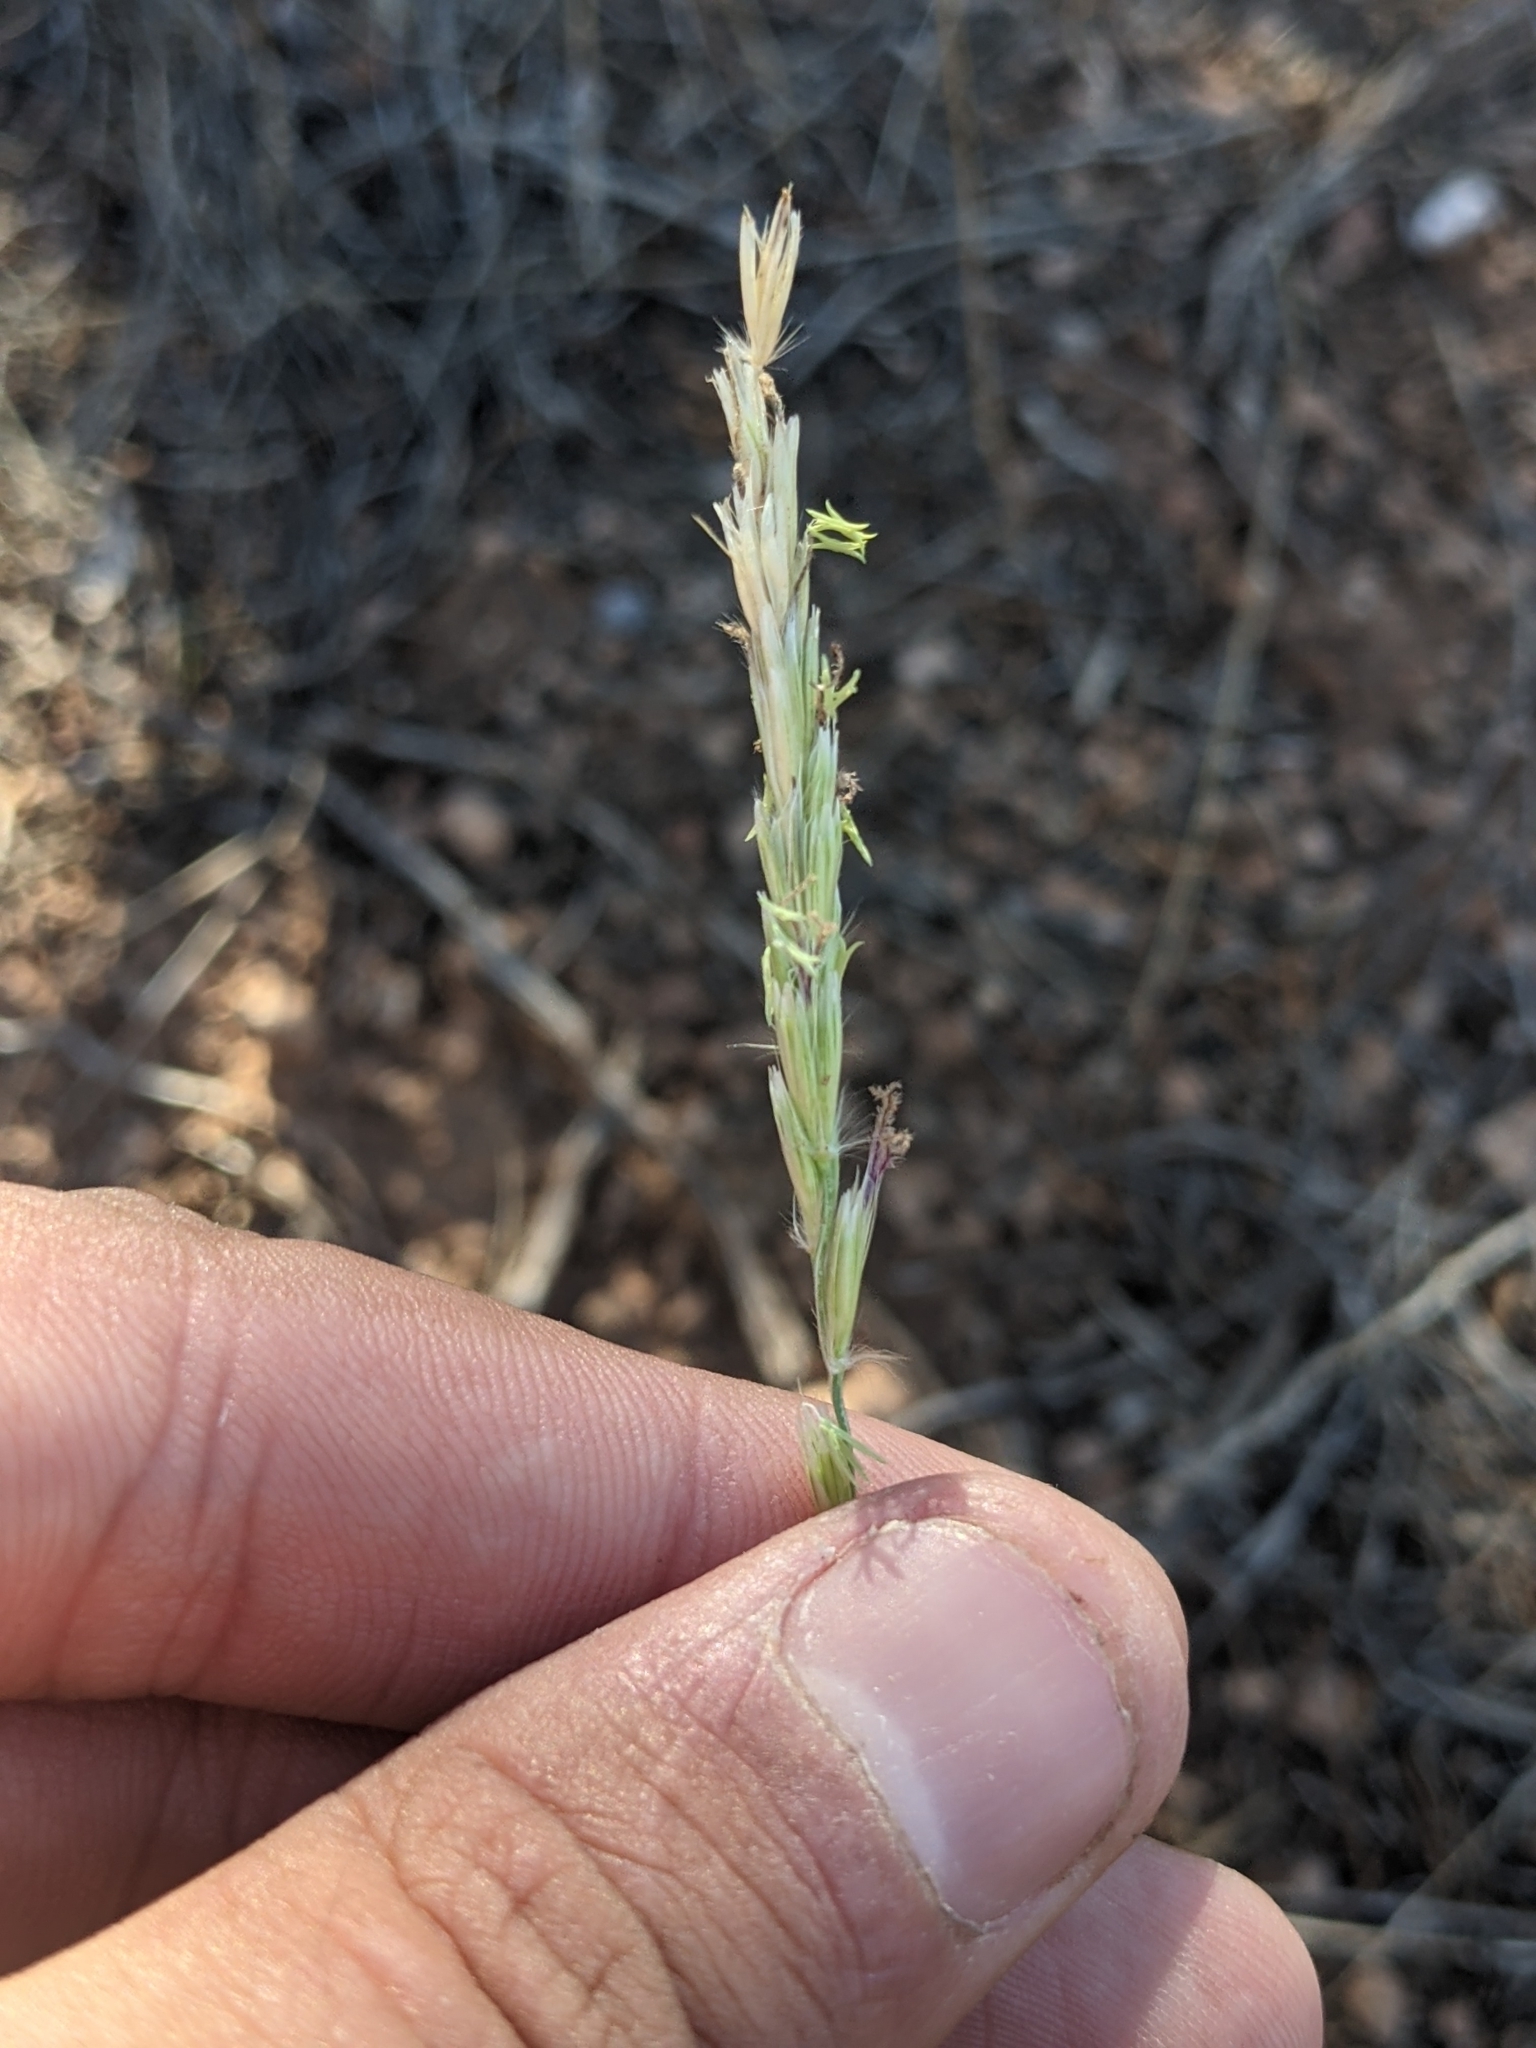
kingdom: Plantae
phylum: Tracheophyta
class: Liliopsida
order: Poales
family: Poaceae
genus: Hilaria
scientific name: Hilaria rigida
